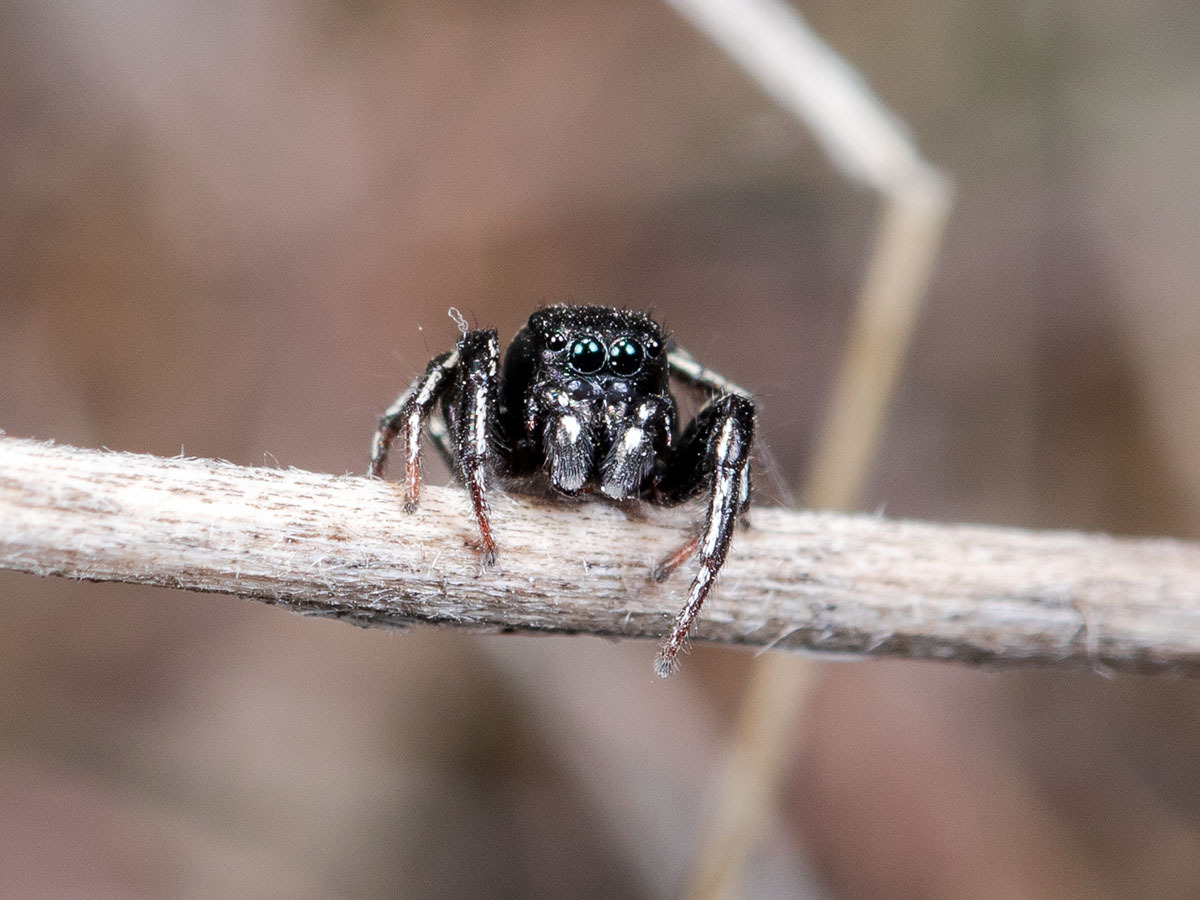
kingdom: Animalia
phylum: Arthropoda
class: Arachnida
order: Araneae
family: Salticidae
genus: Heliophanus
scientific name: Heliophanus chovdensis
